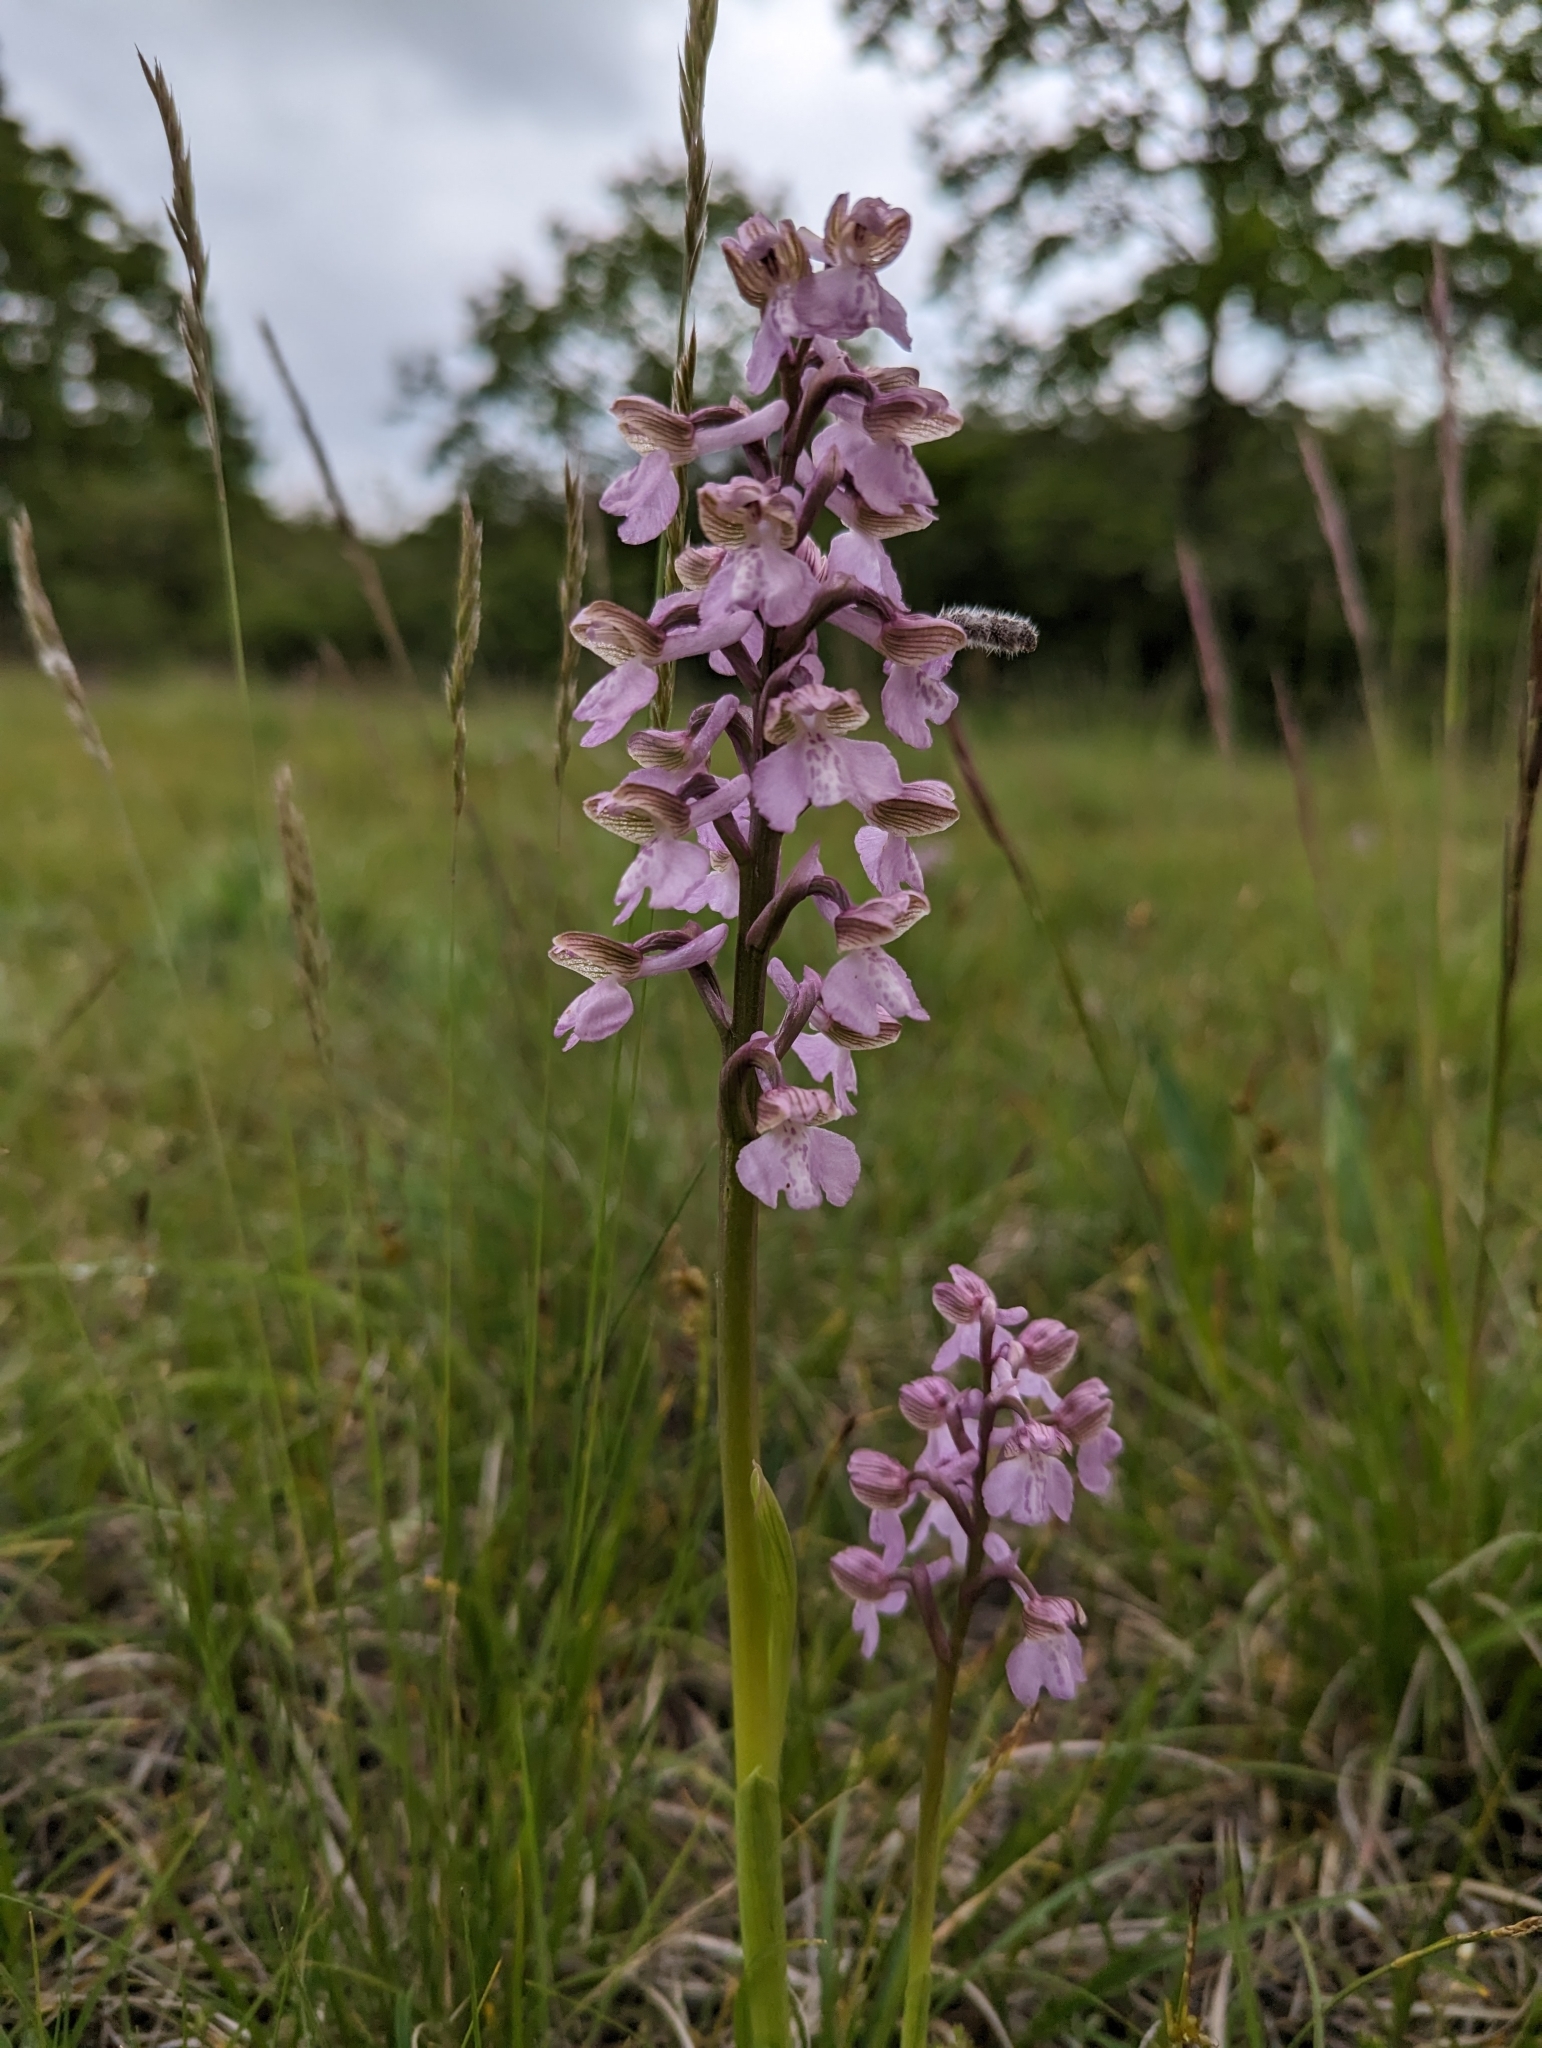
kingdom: Plantae
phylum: Tracheophyta
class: Liliopsida
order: Asparagales
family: Orchidaceae
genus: Anacamptis
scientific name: Anacamptis morio
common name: Green-winged orchid
